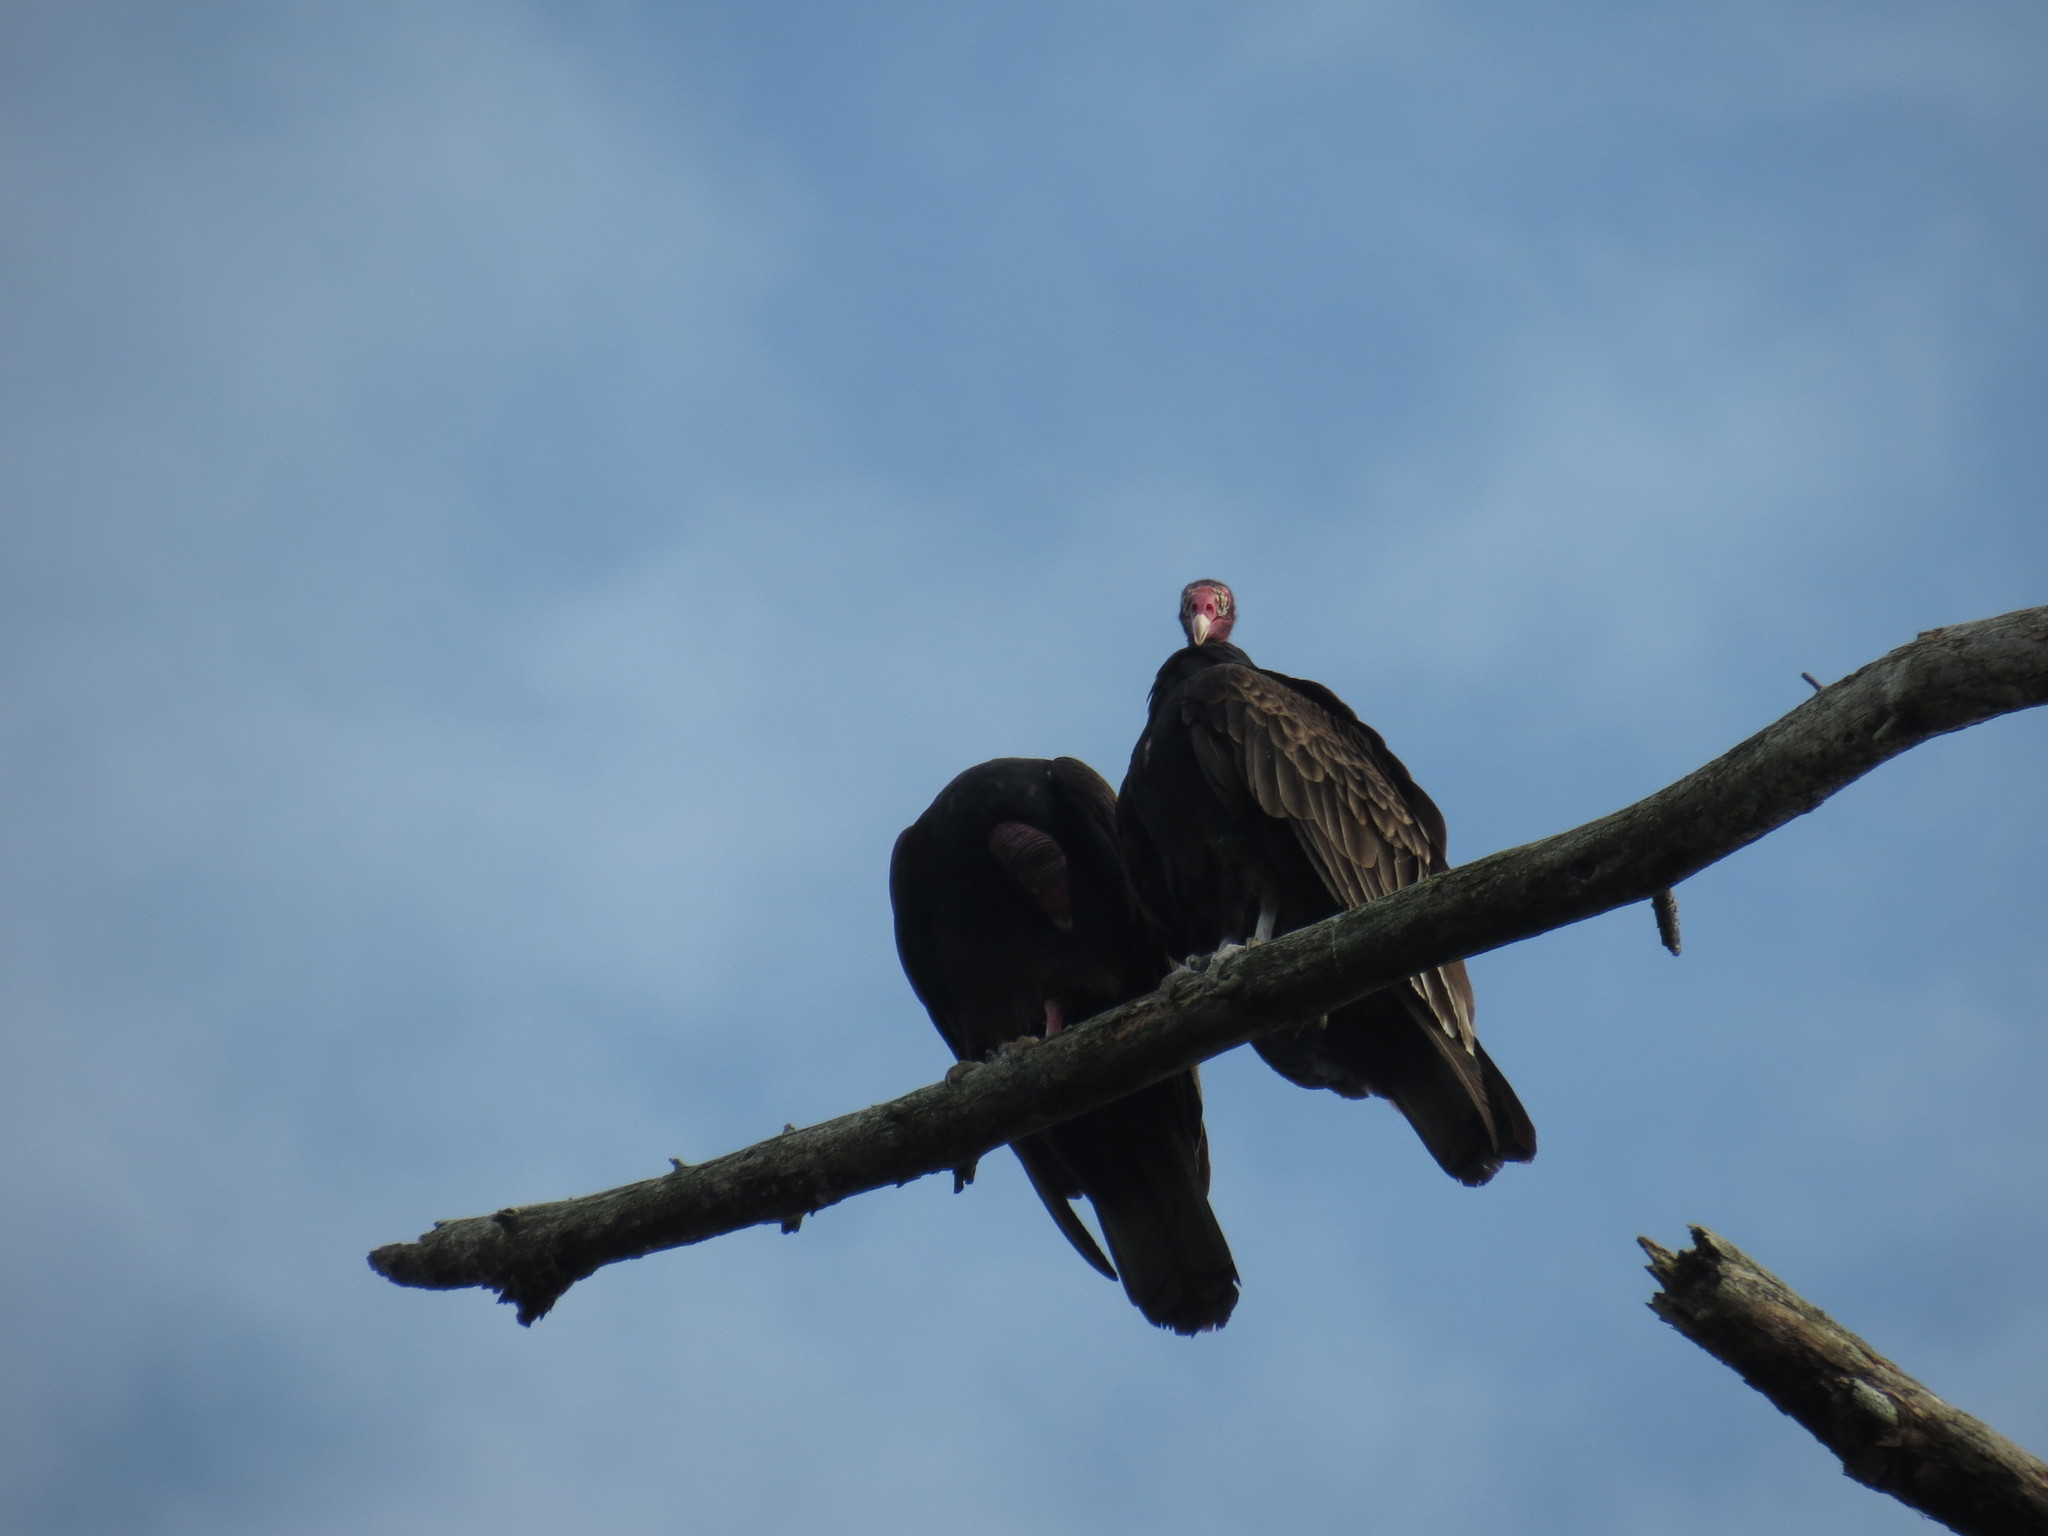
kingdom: Animalia
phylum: Chordata
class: Aves
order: Accipitriformes
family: Cathartidae
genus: Cathartes
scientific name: Cathartes aura
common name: Turkey vulture
